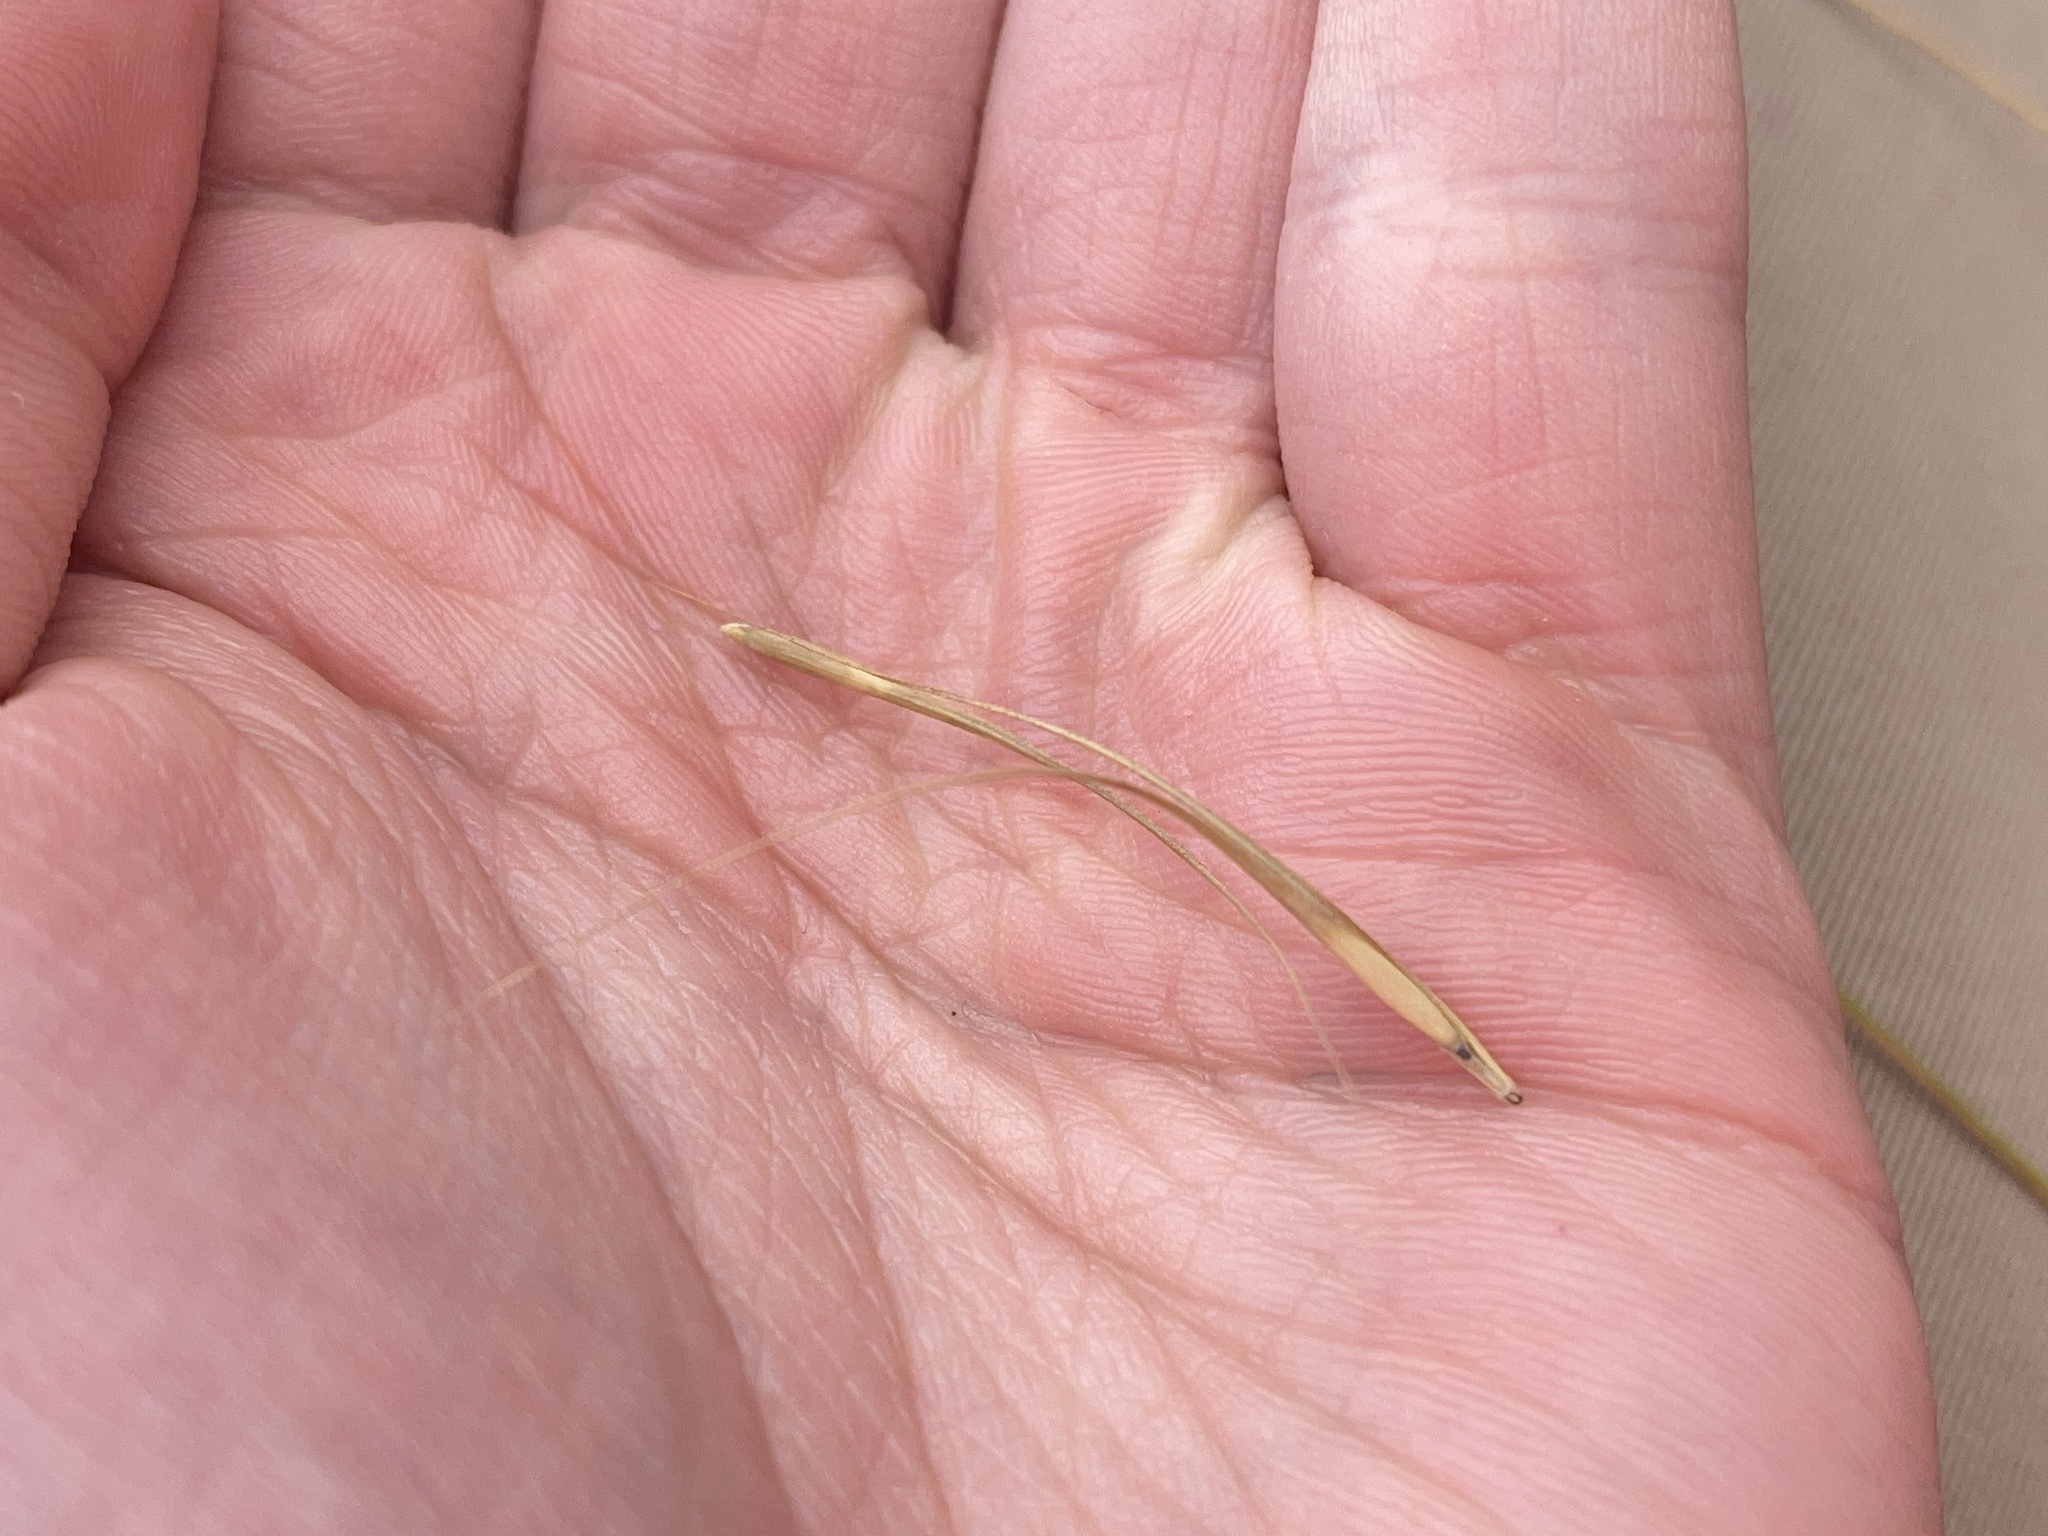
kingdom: Plantae
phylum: Tracheophyta
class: Liliopsida
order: Poales
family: Poaceae
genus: Anthosachne
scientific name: Anthosachne scabra
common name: Common wheatgrass
